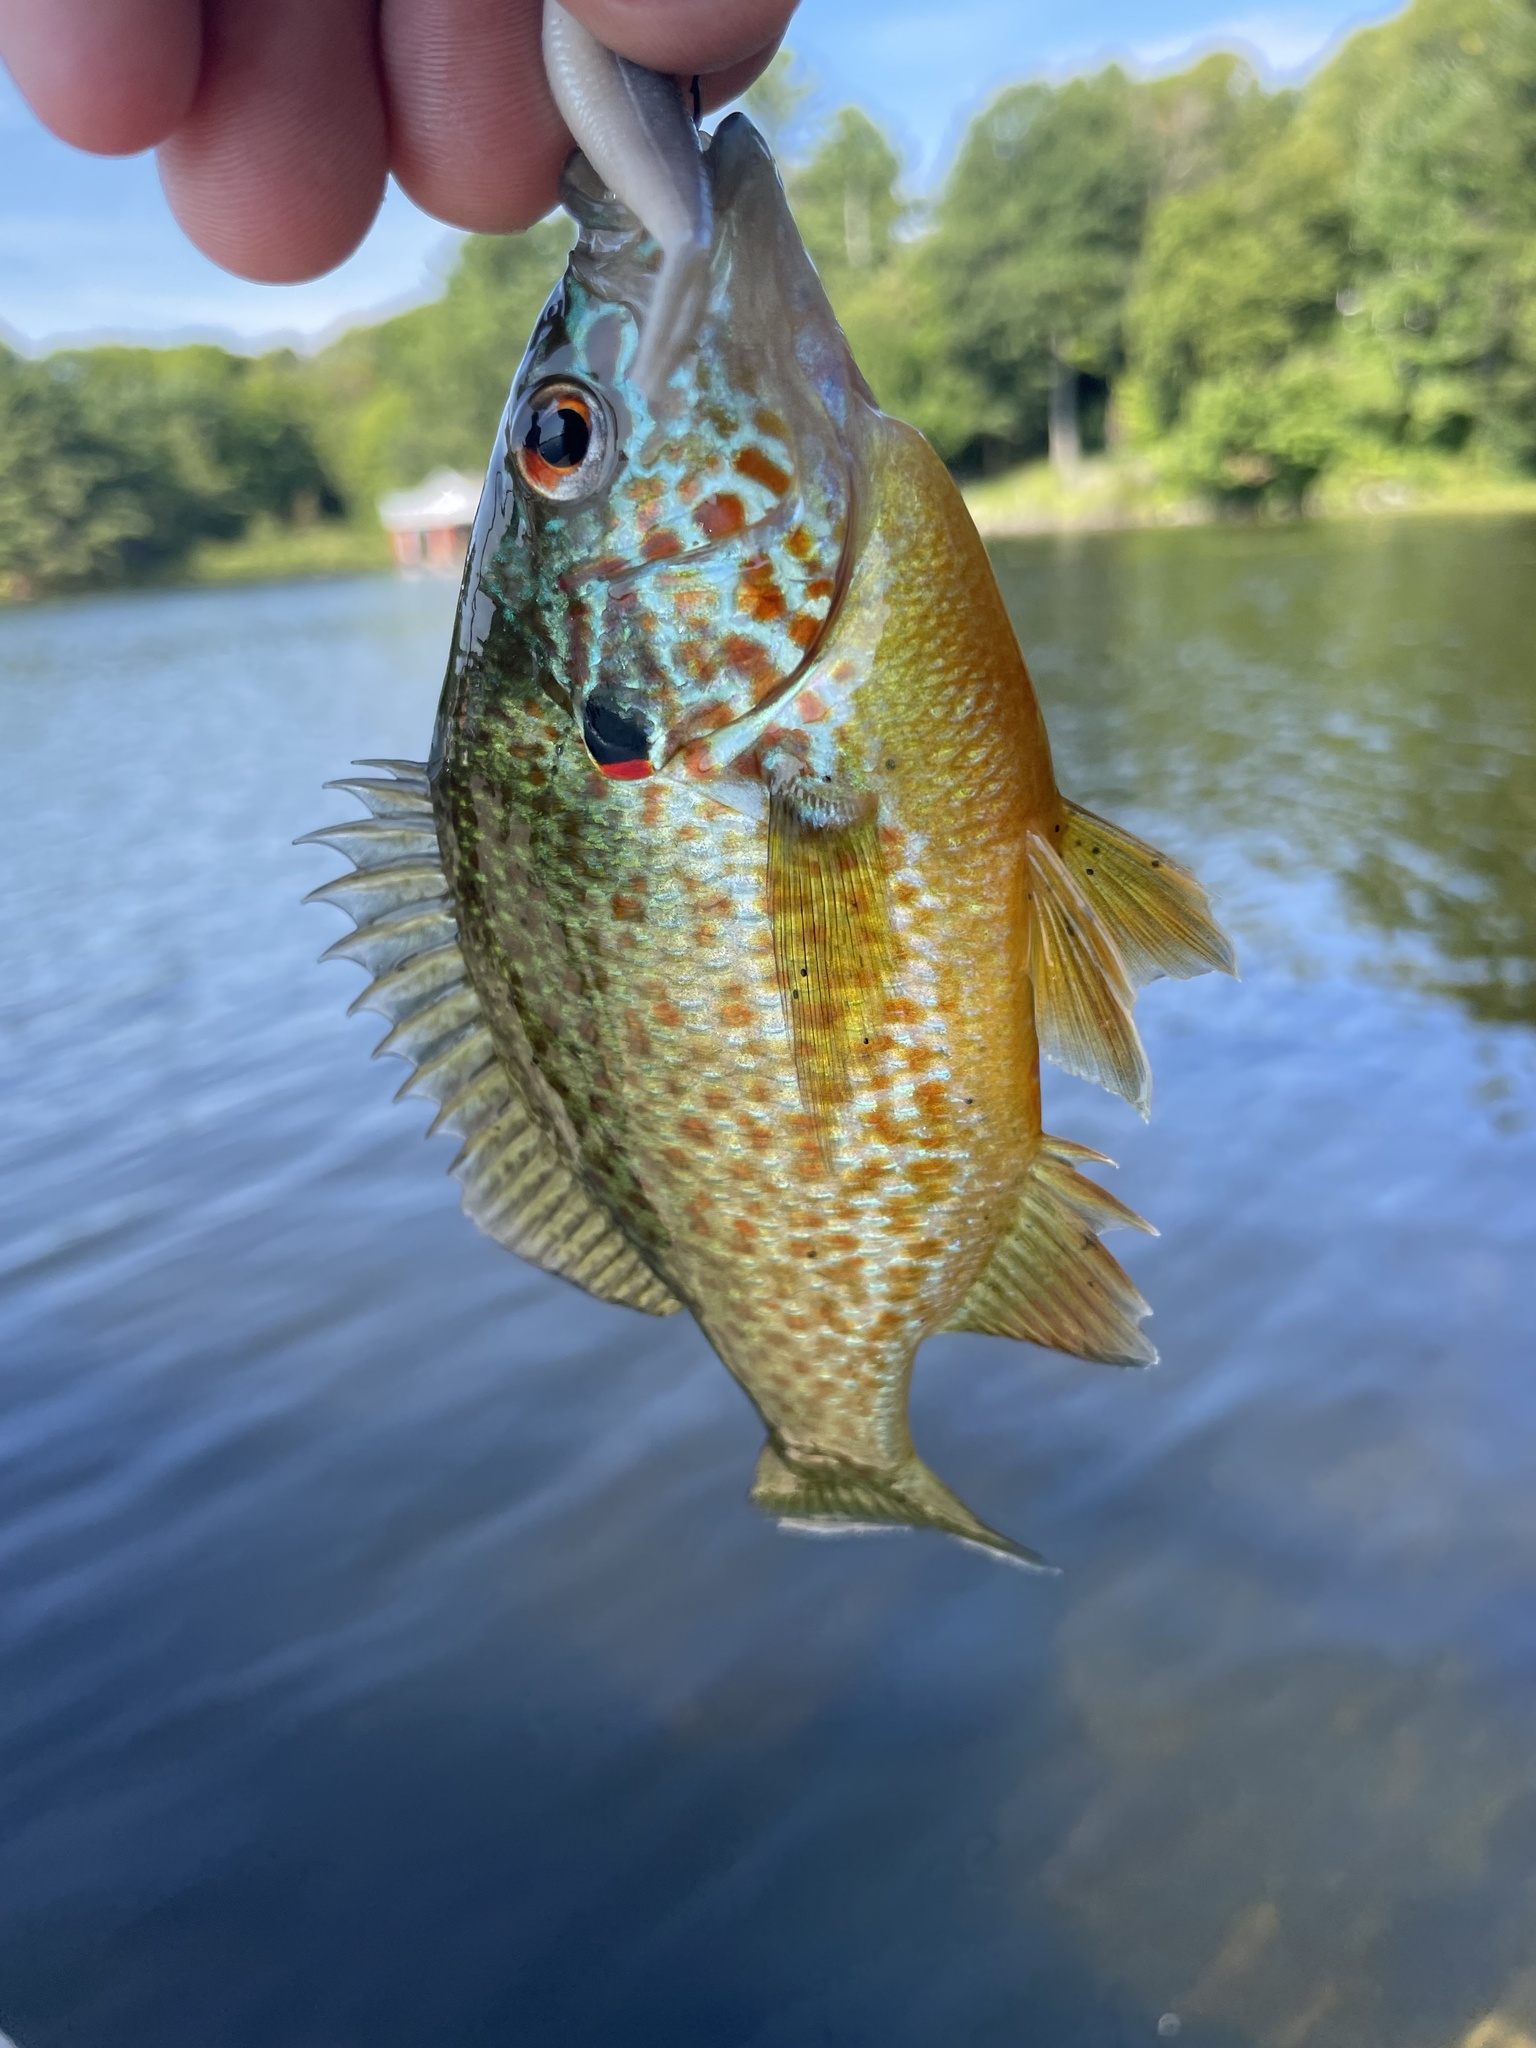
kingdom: Animalia
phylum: Chordata
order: Perciformes
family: Centrarchidae
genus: Lepomis
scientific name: Lepomis gibbosus
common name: Pumpkinseed
